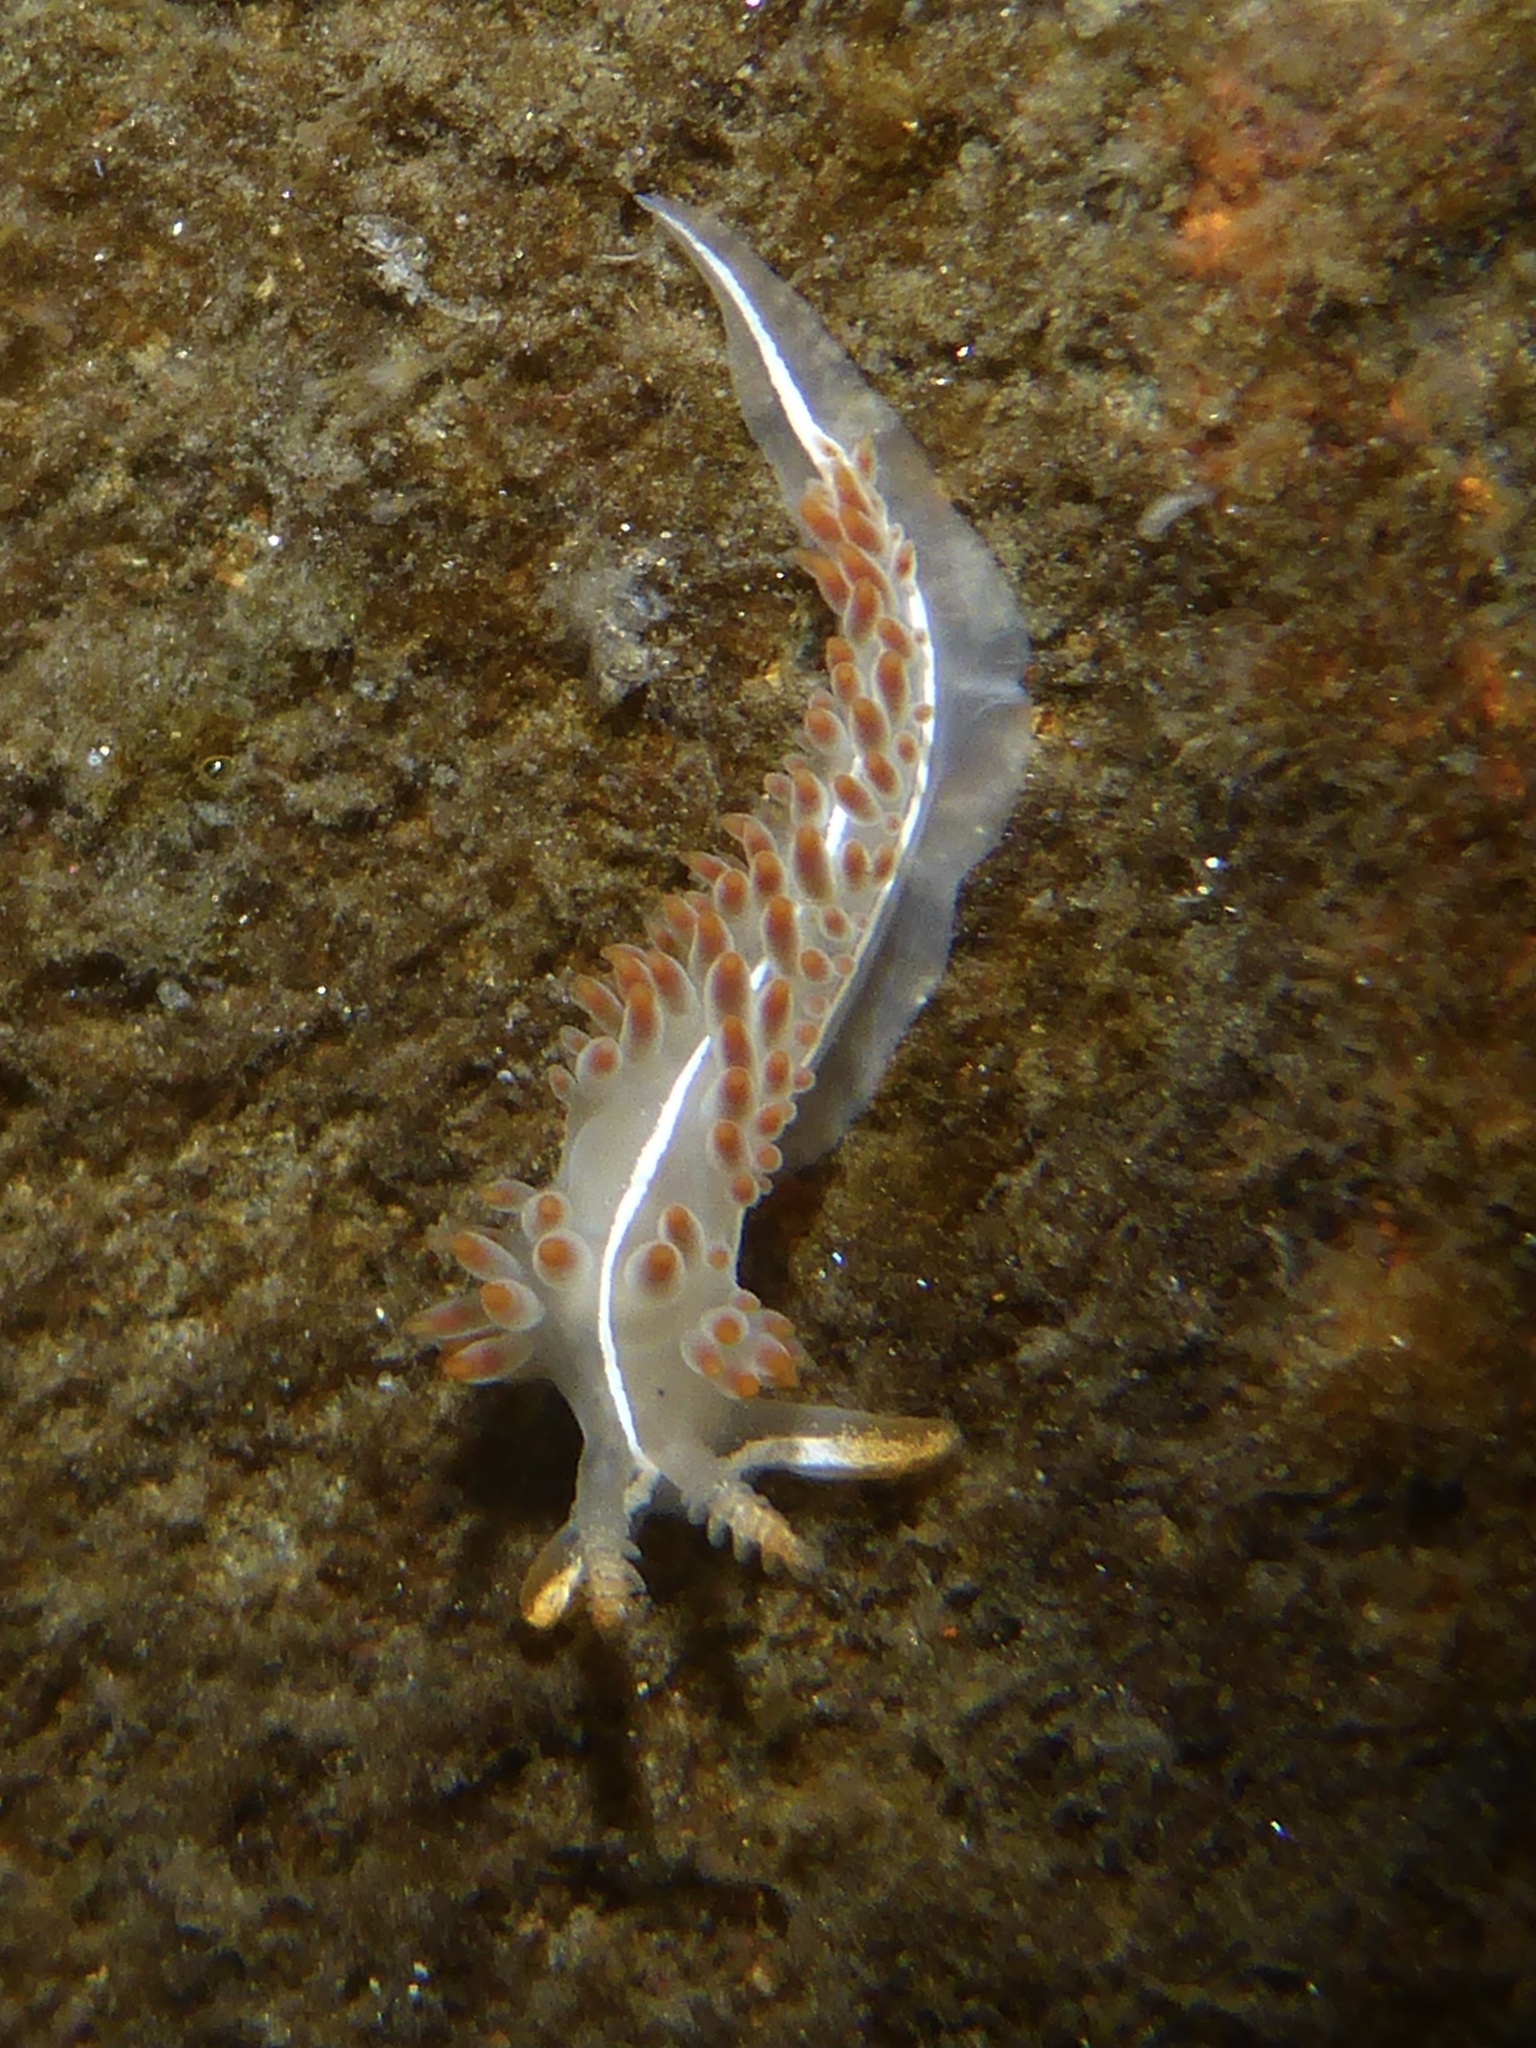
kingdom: Animalia
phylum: Mollusca
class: Gastropoda
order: Nudibranchia
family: Coryphellidae
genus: Coryphella
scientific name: Coryphella trilineata
